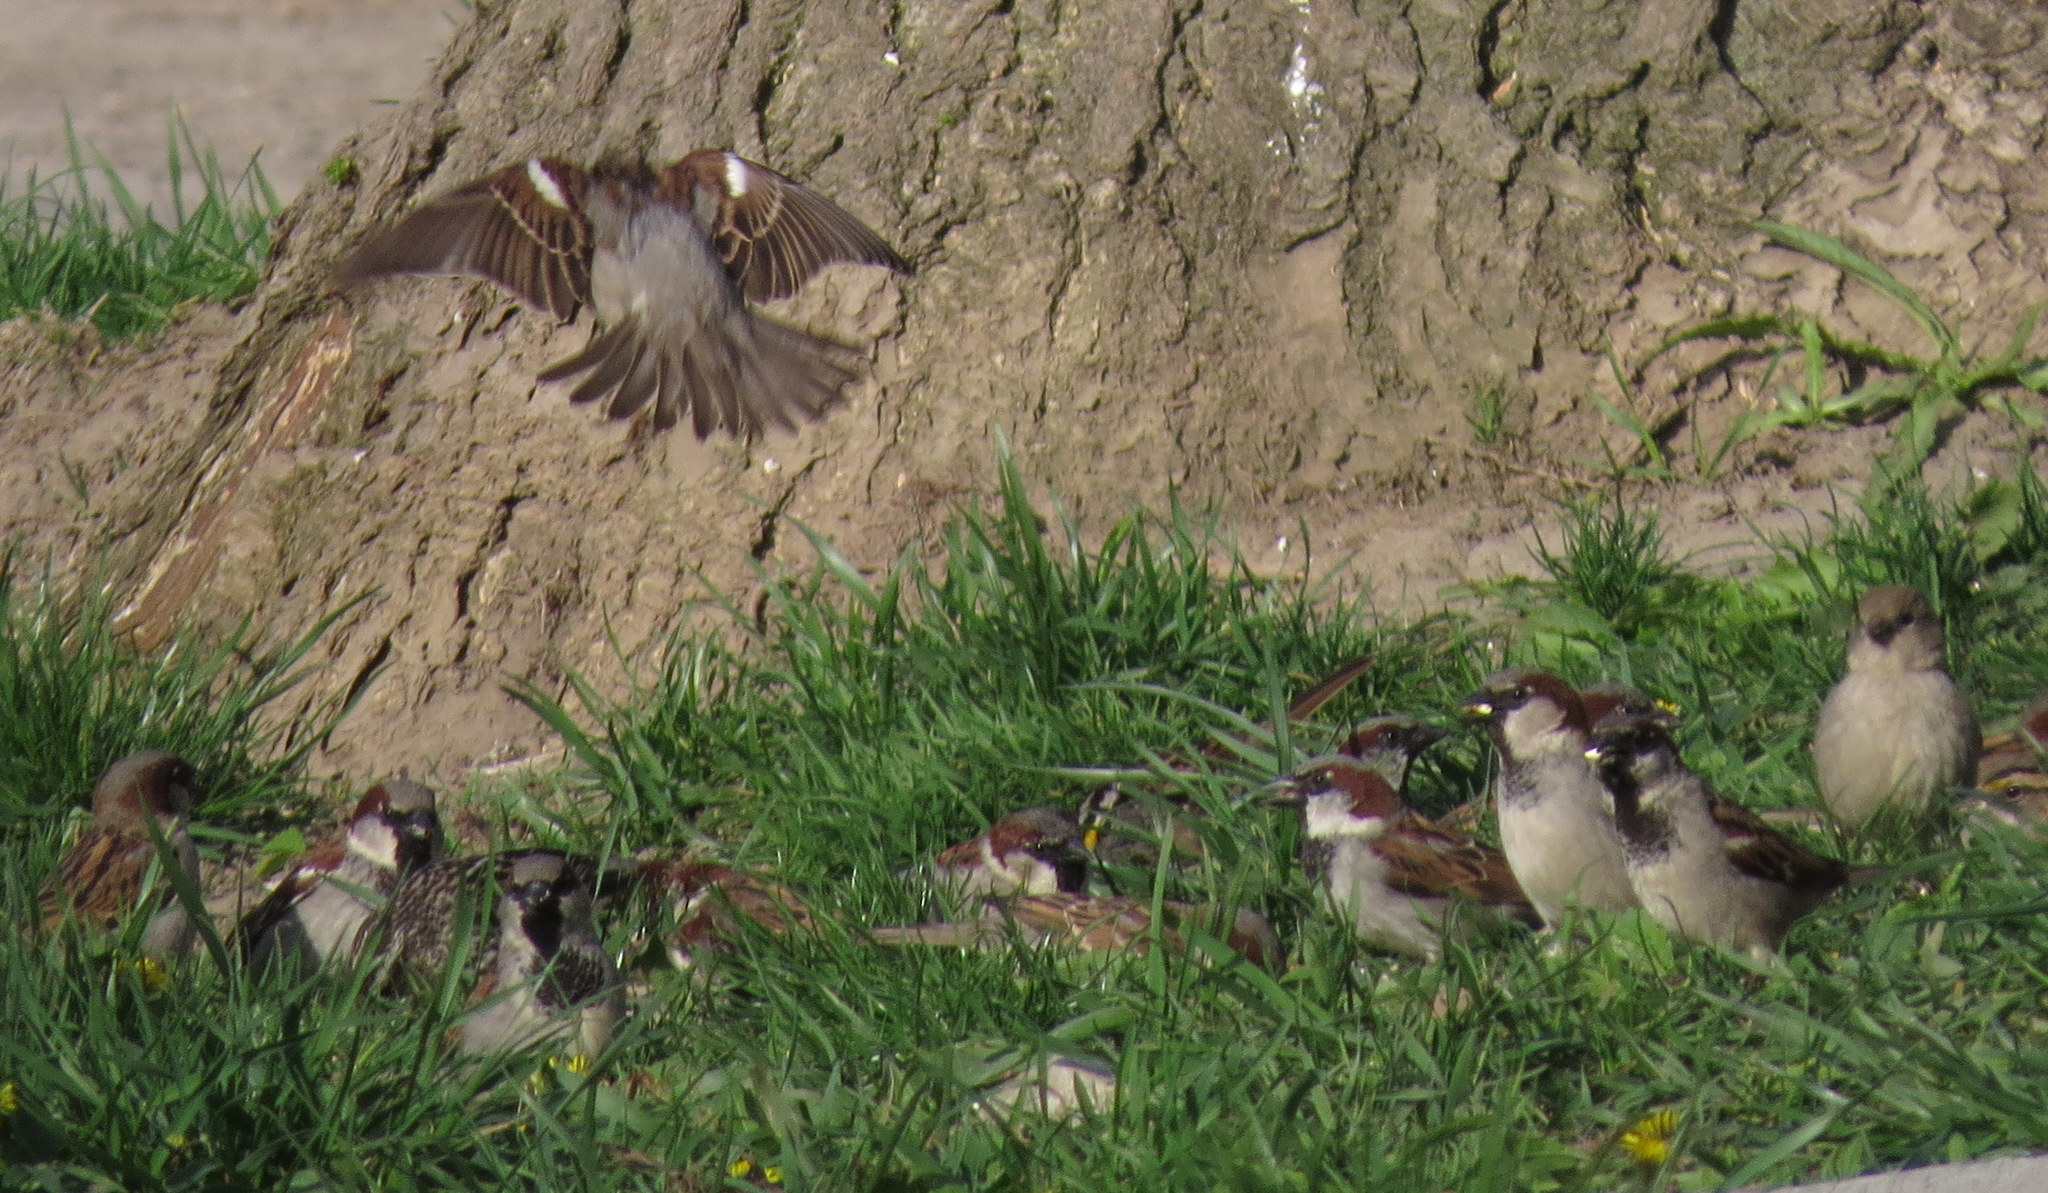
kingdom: Animalia
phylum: Chordata
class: Aves
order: Passeriformes
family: Passeridae
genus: Passer
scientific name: Passer domesticus
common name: House sparrow
